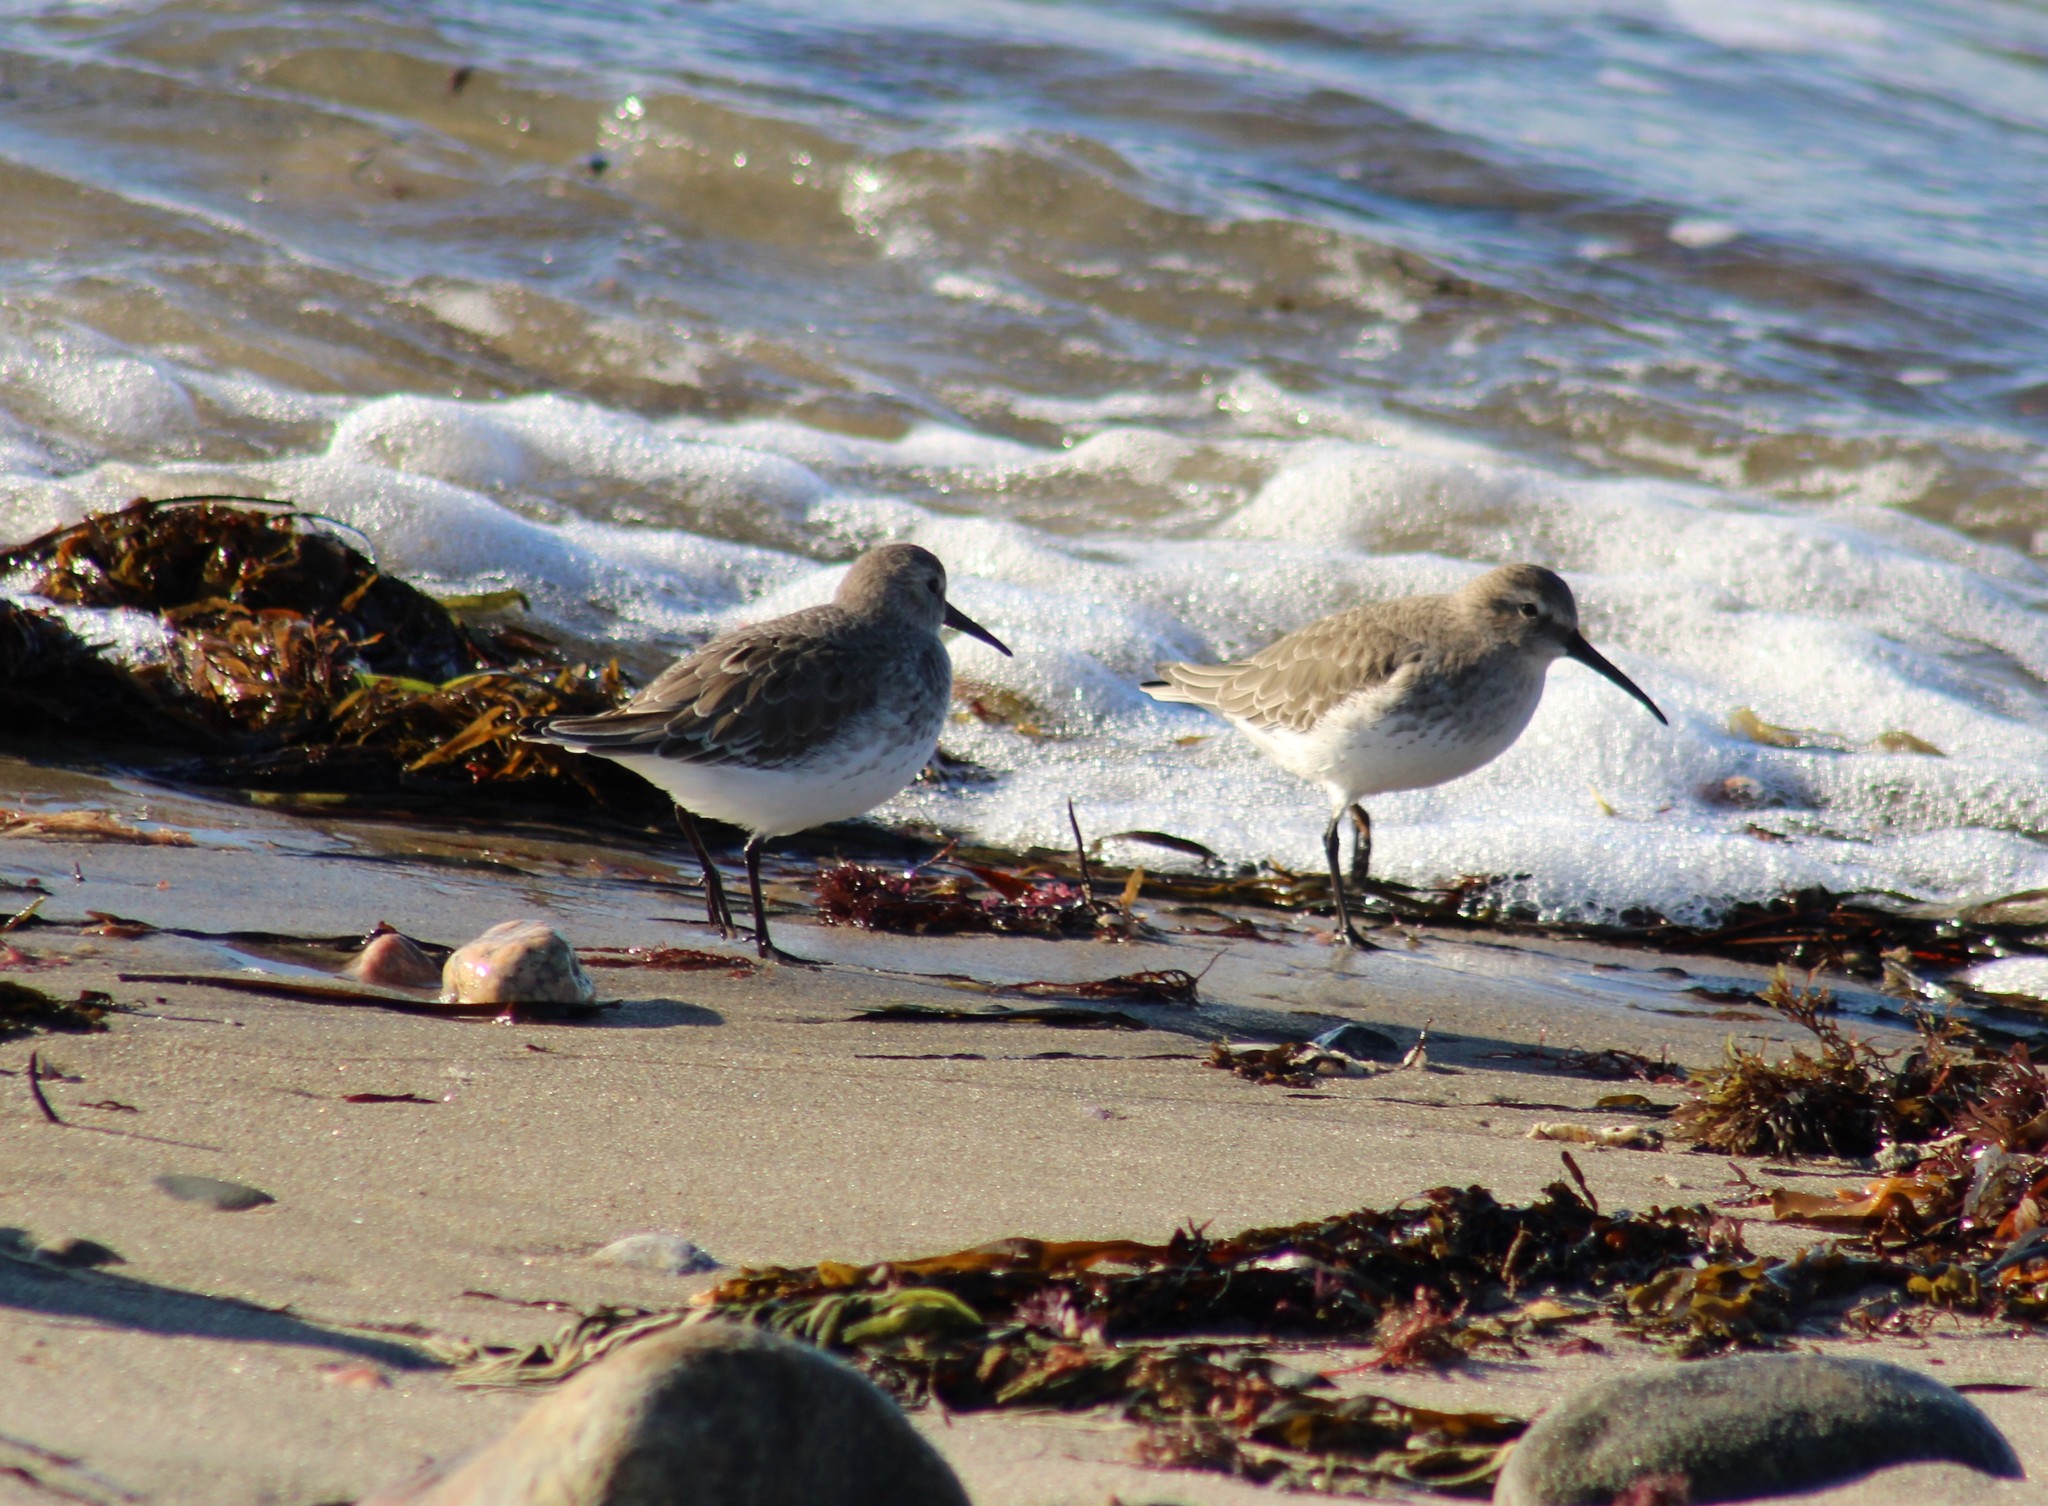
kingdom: Animalia
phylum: Chordata
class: Aves
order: Charadriiformes
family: Scolopacidae
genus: Calidris
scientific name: Calidris alpina
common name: Dunlin
